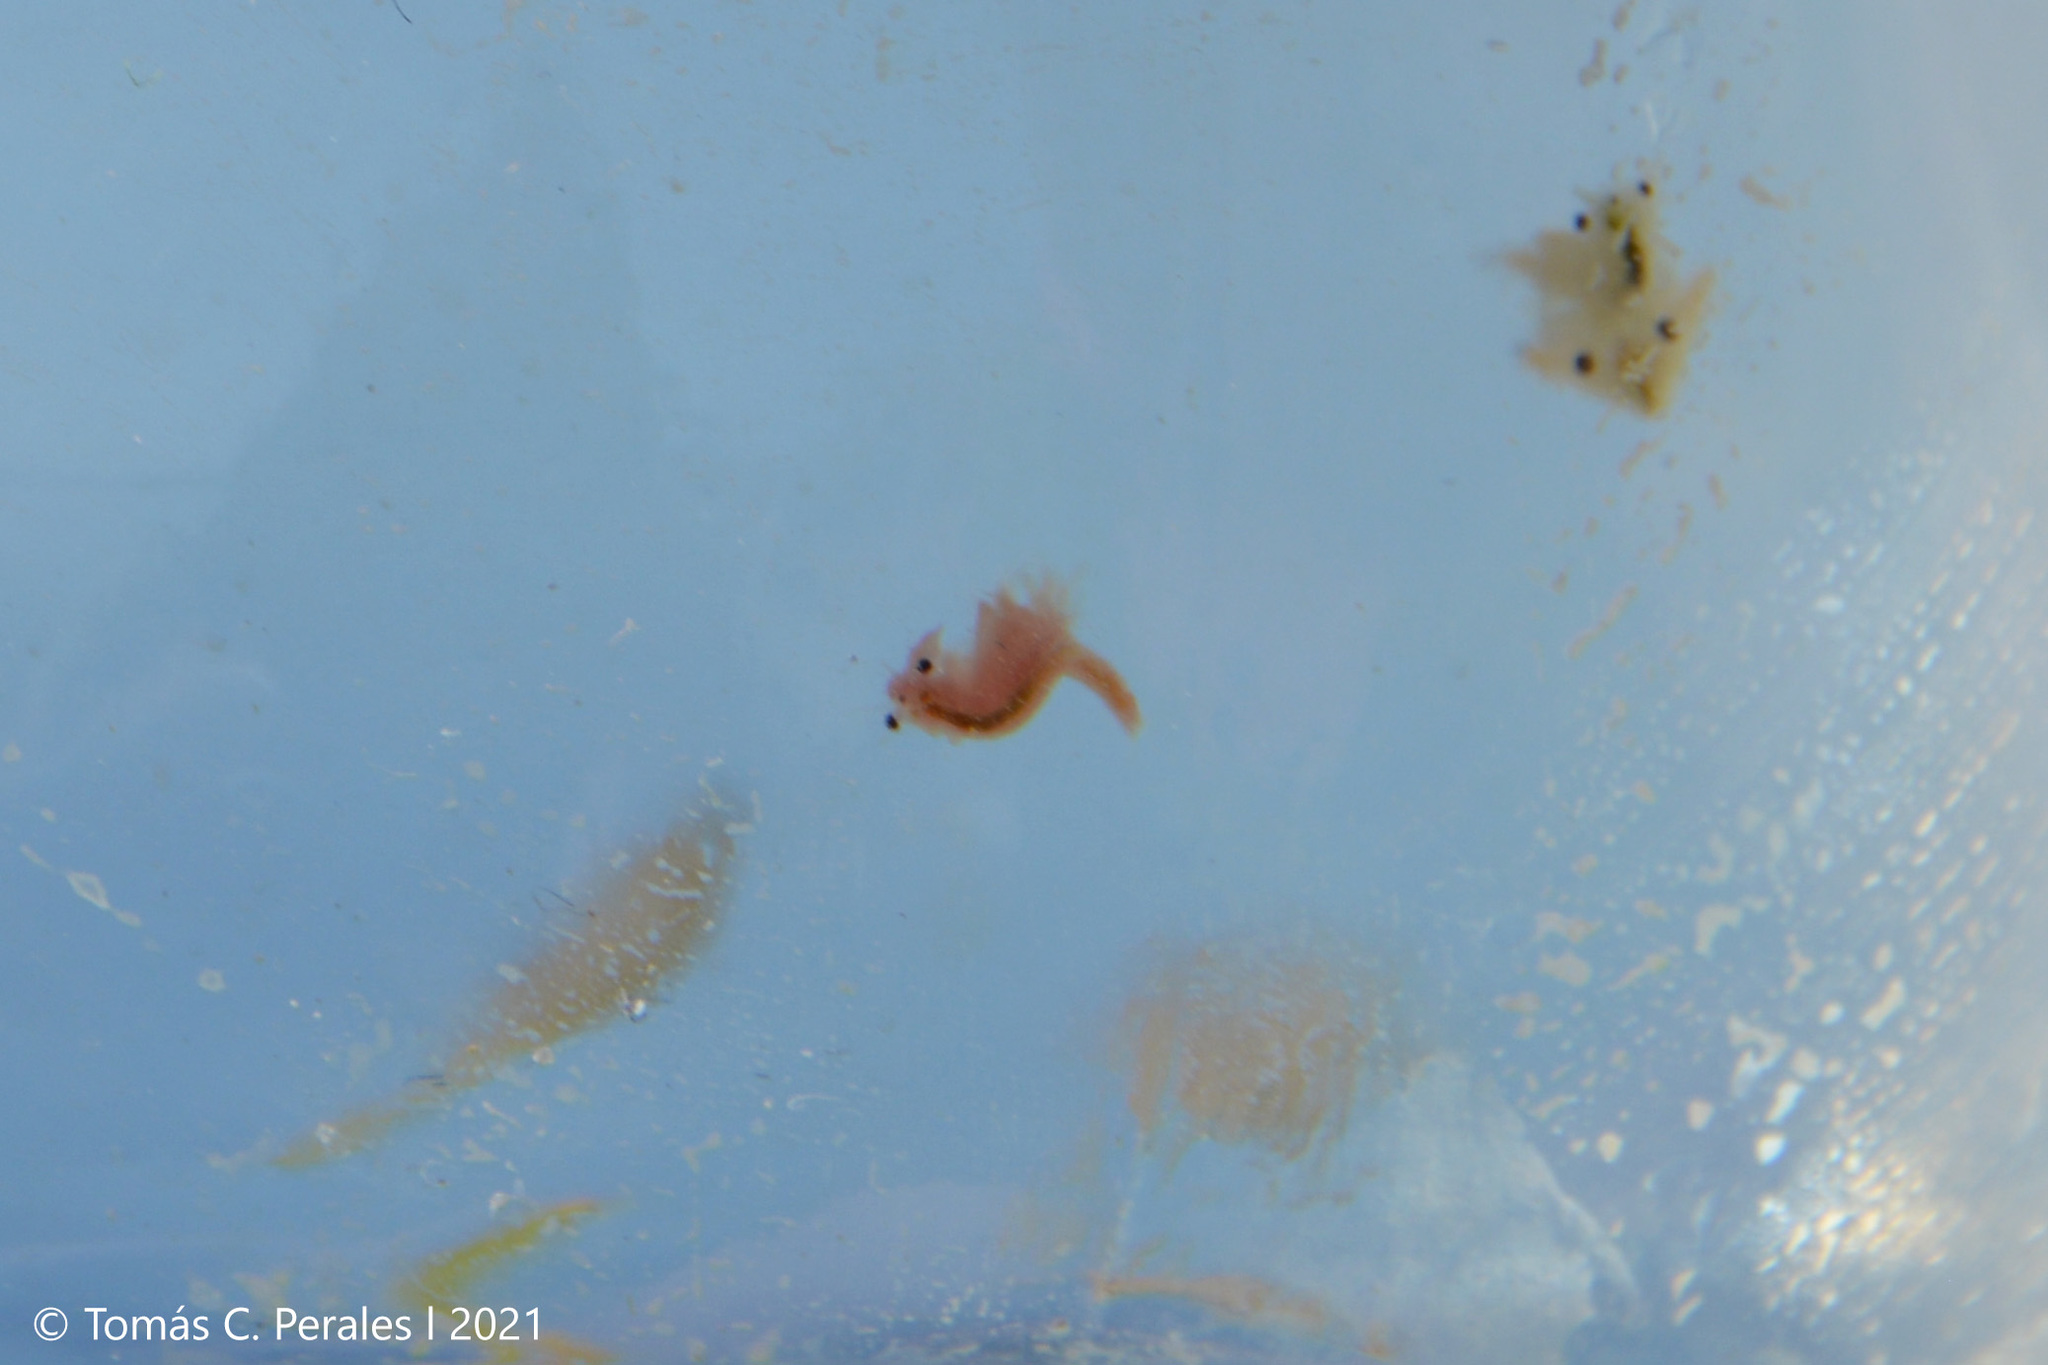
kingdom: Animalia
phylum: Arthropoda
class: Branchiopoda
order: Anostraca
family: Artemiidae
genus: Artemia
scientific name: Artemia monica
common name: Mono lake brine shrimp
